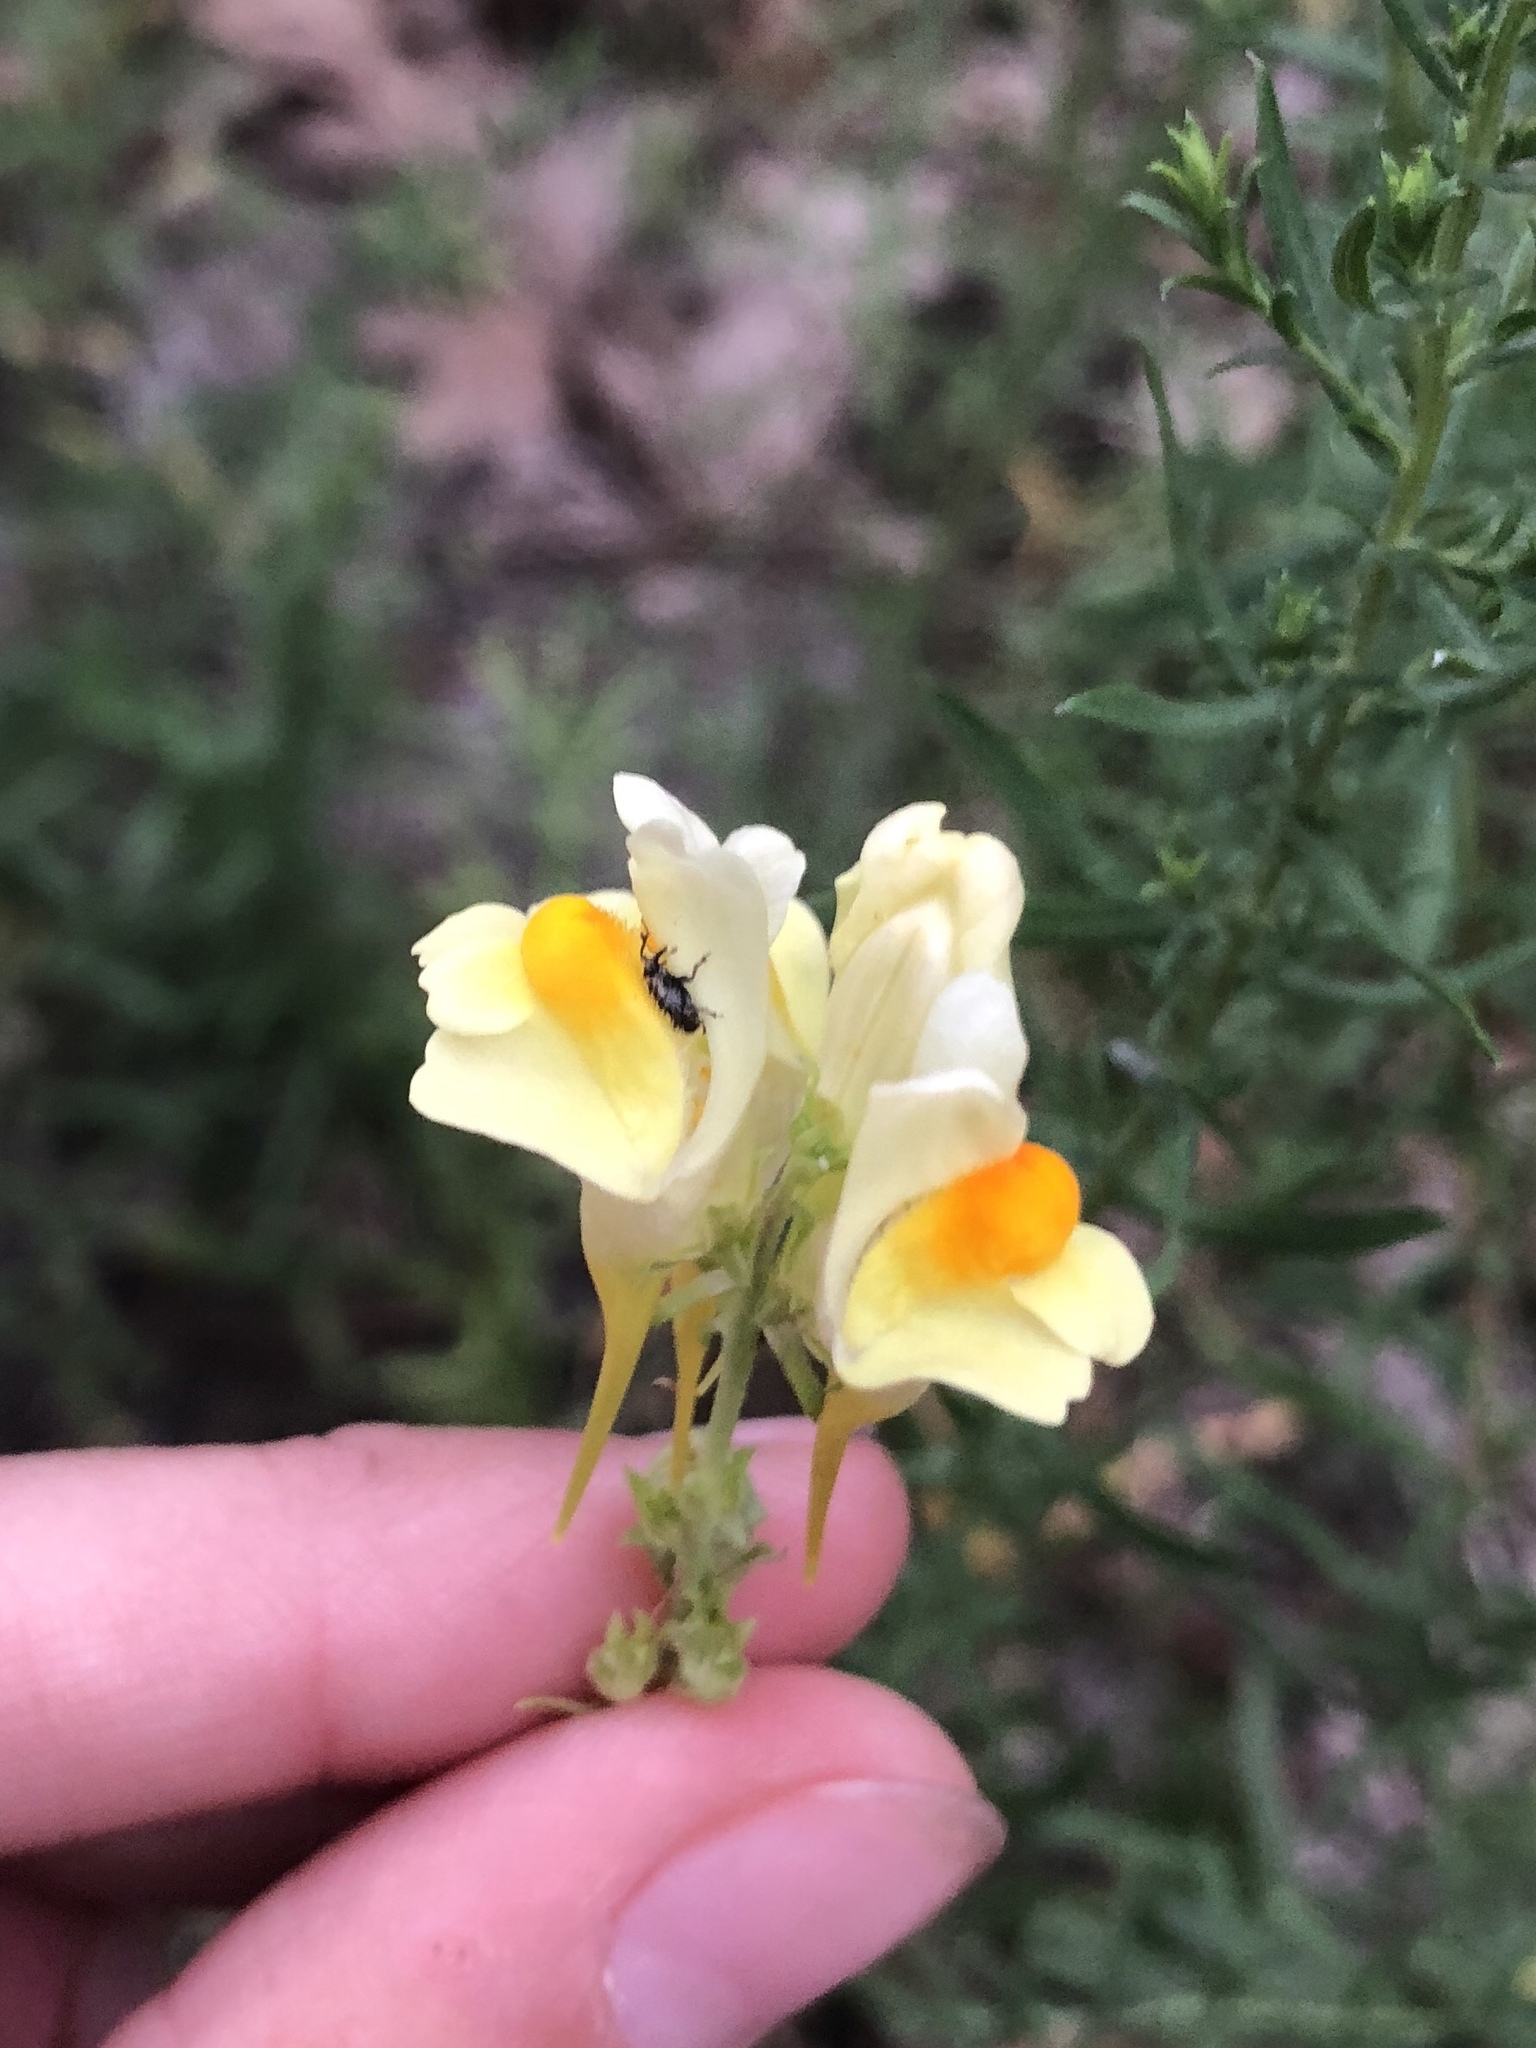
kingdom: Plantae
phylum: Tracheophyta
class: Magnoliopsida
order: Lamiales
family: Plantaginaceae
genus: Linaria
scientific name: Linaria vulgaris
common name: Butter and eggs
